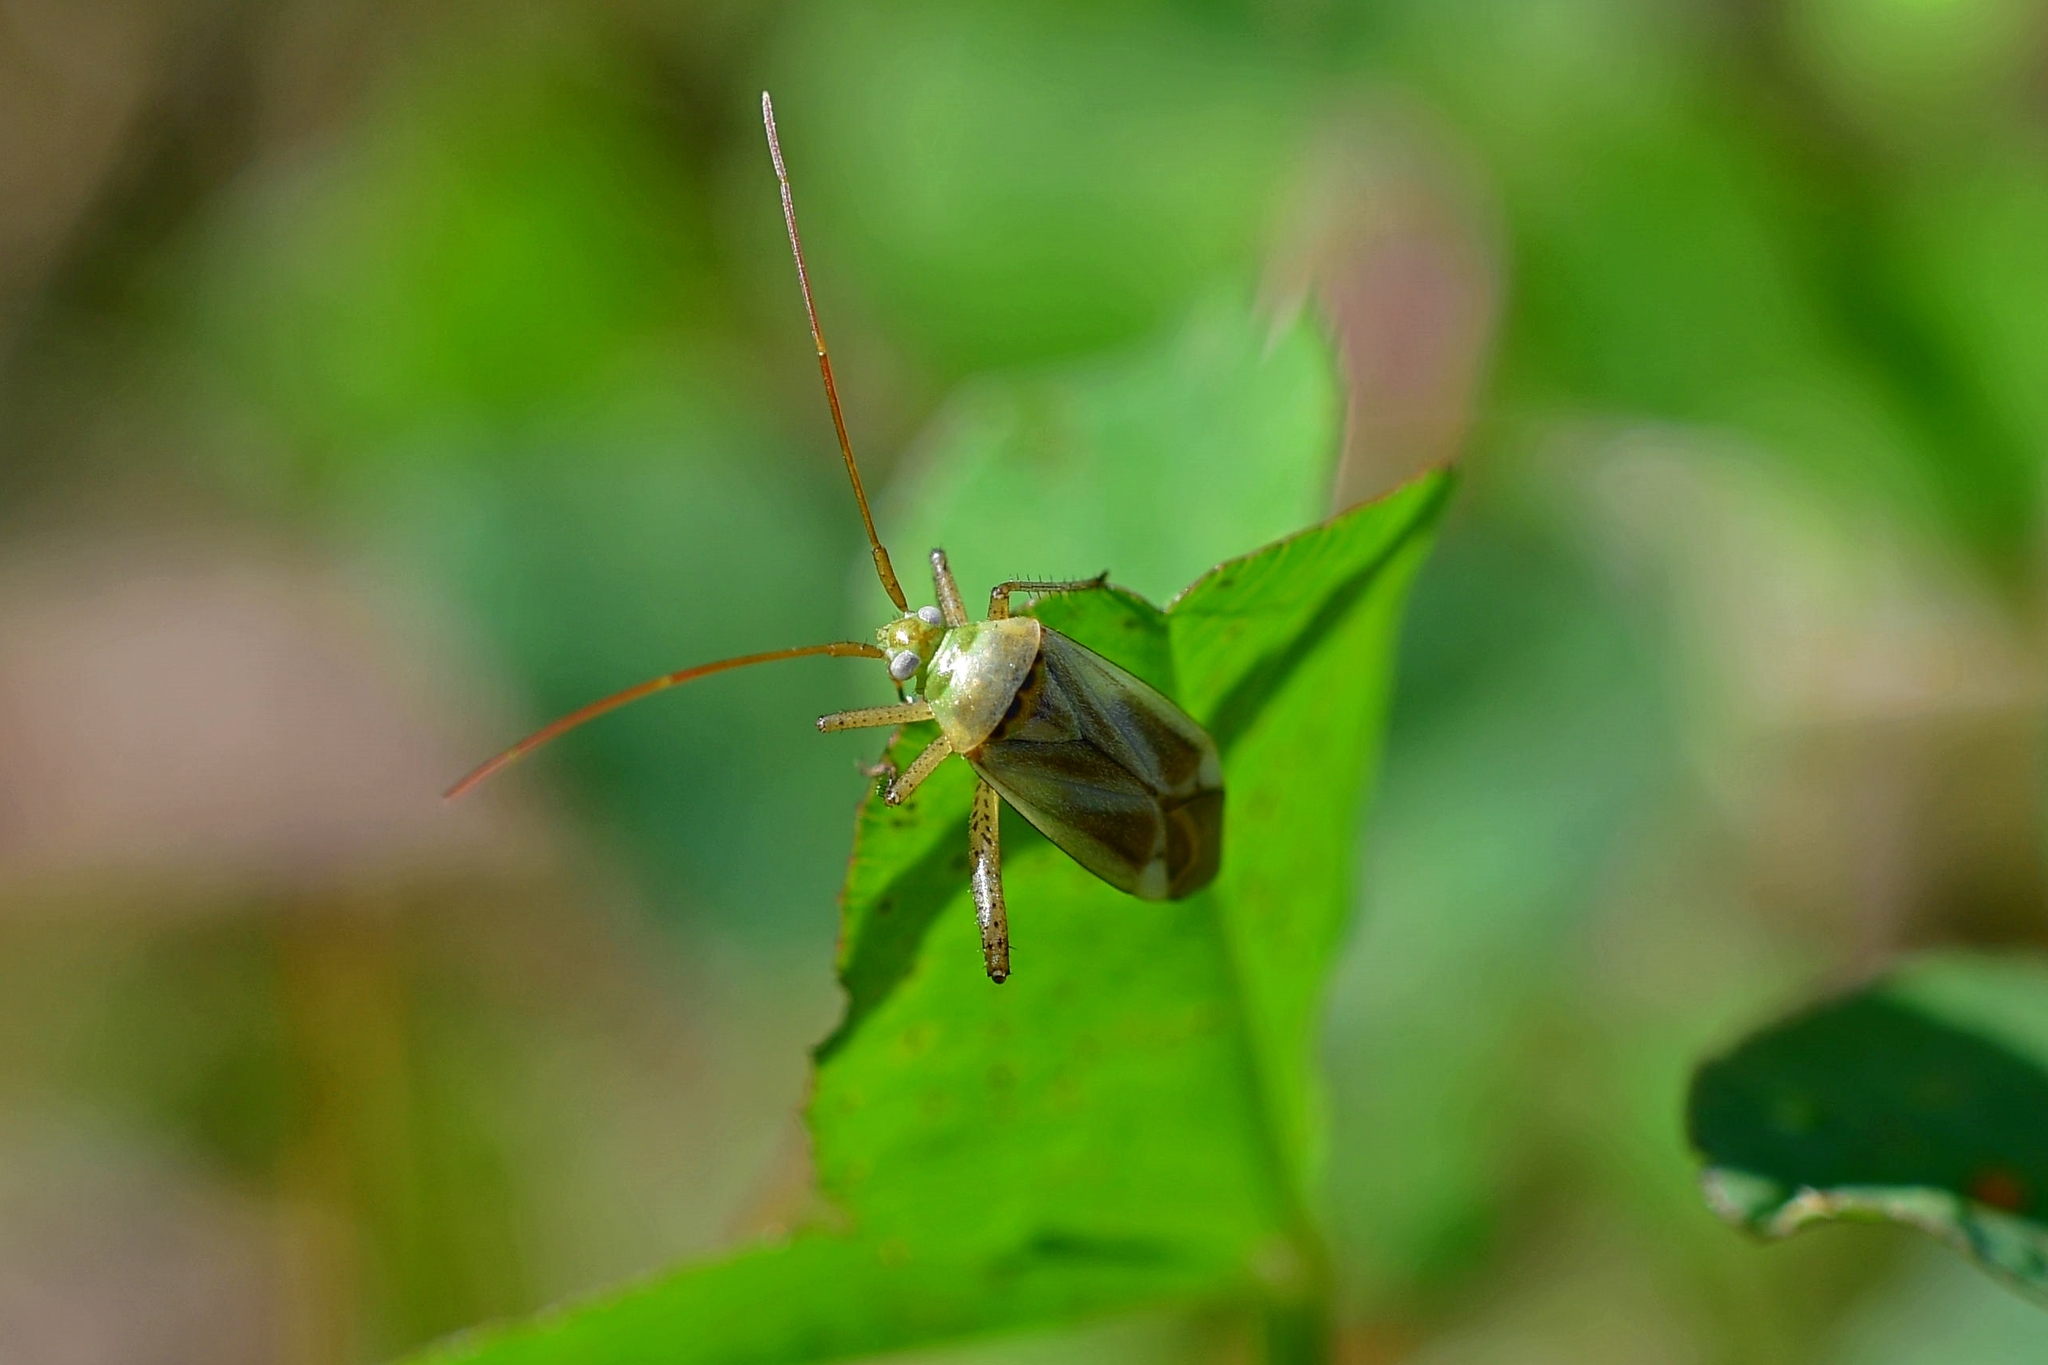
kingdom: Animalia
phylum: Arthropoda
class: Insecta
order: Hemiptera
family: Miridae
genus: Adelphocoris
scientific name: Adelphocoris lineolatus
